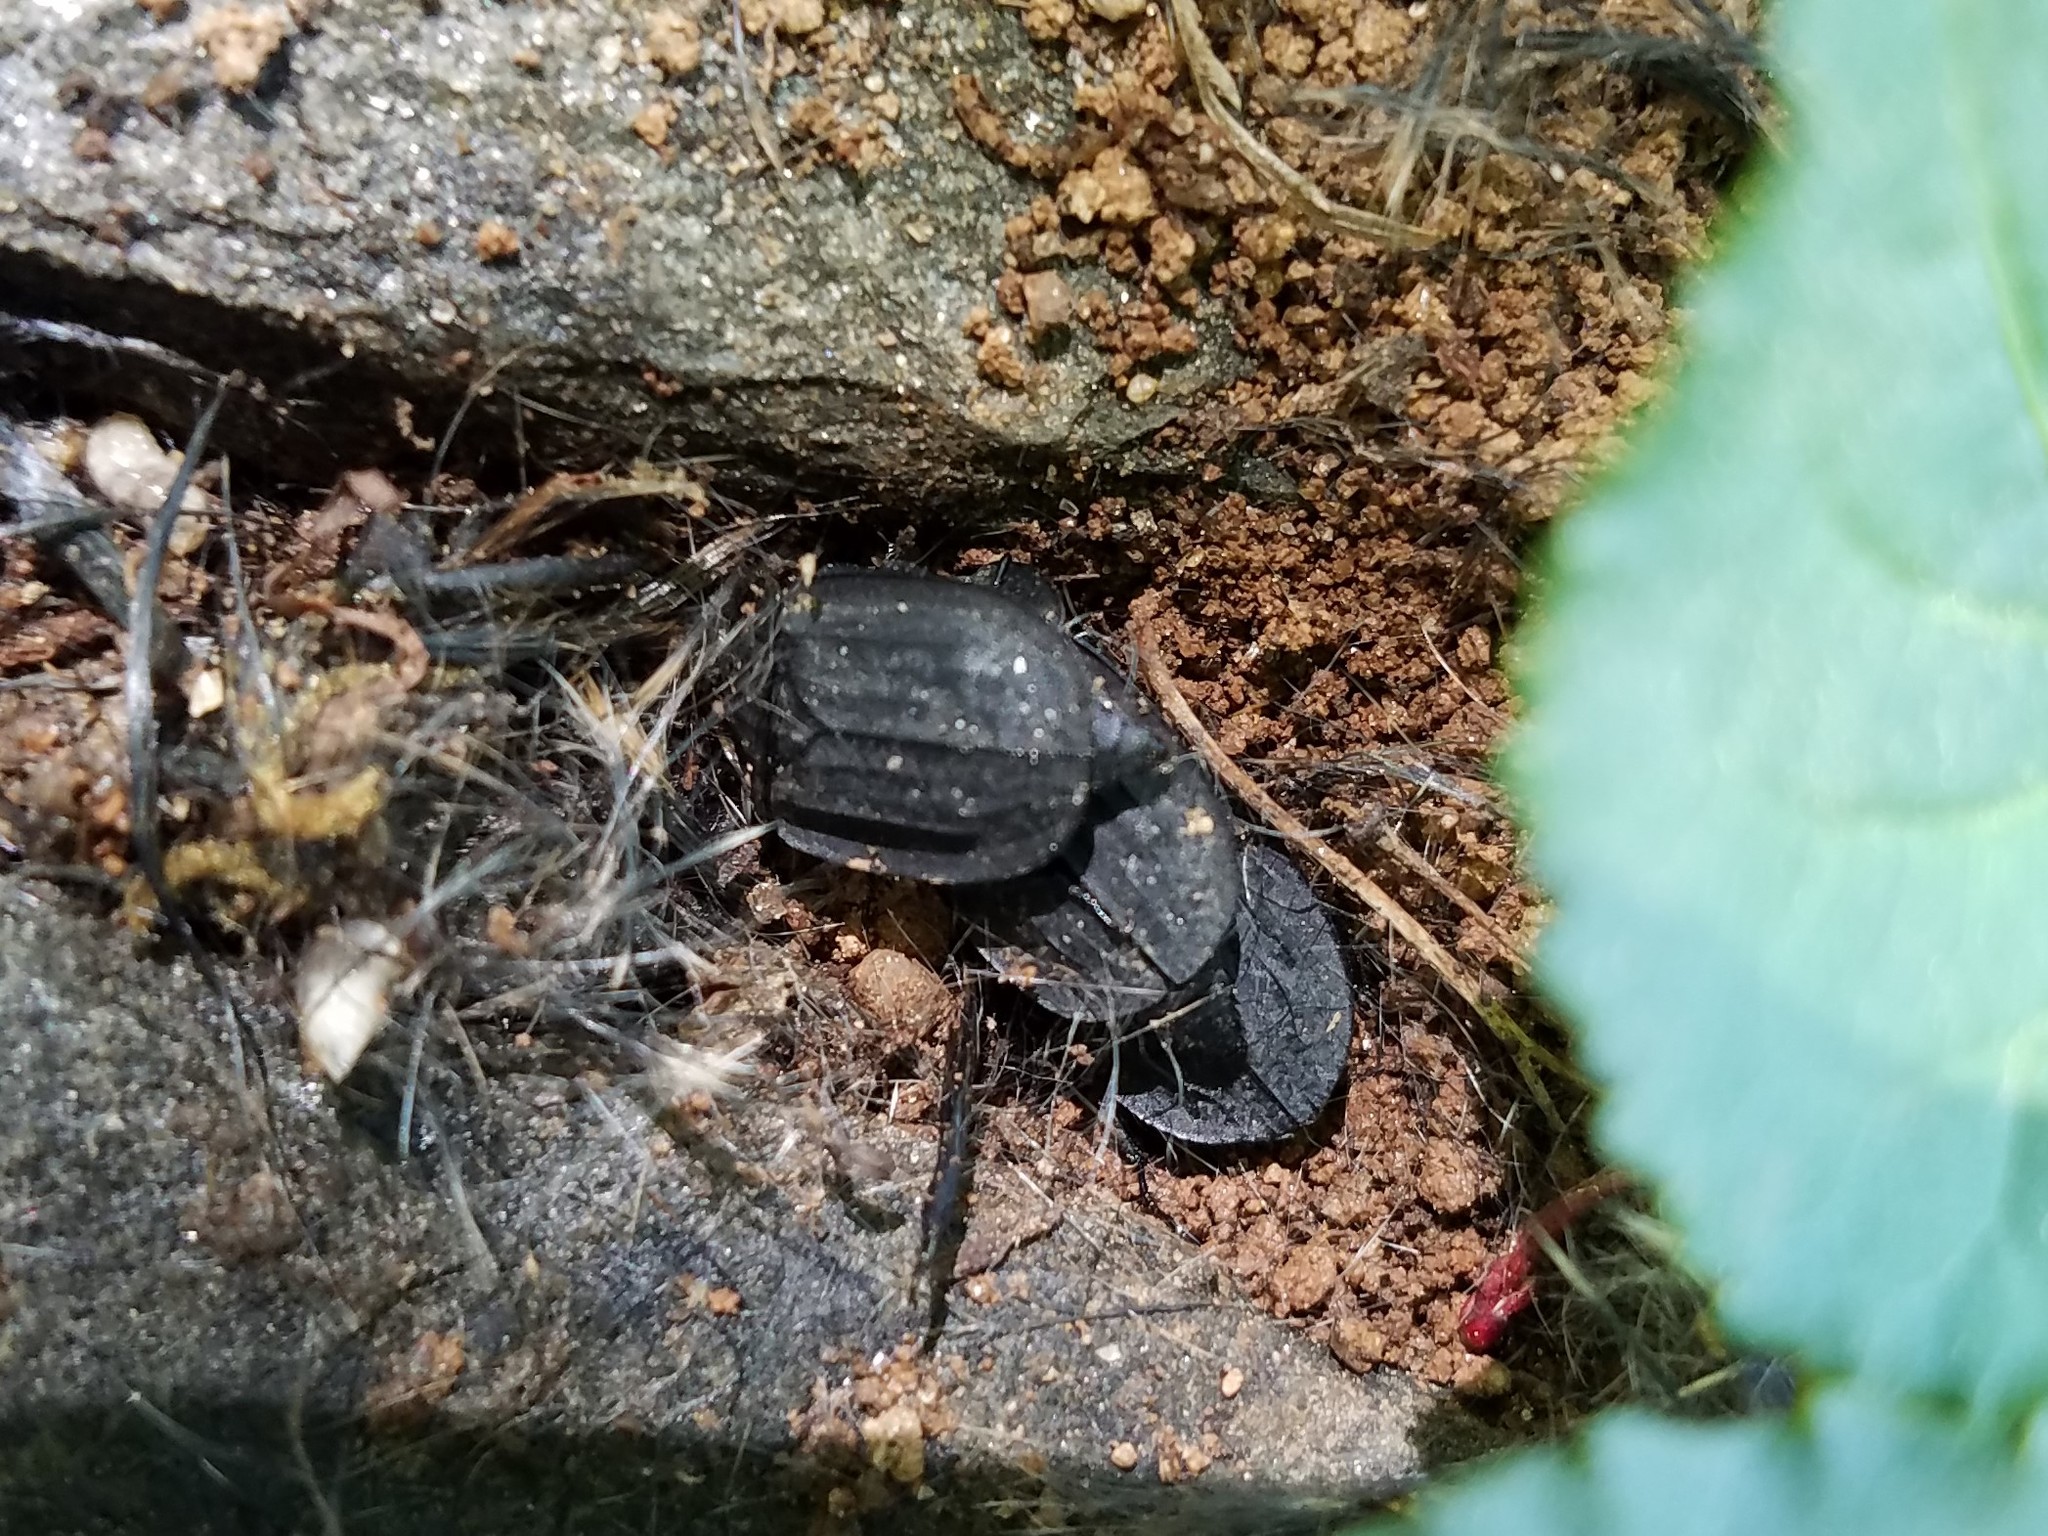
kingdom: Animalia
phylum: Arthropoda
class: Insecta
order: Coleoptera
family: Staphylinidae
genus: Oiceoptoma
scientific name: Oiceoptoma inaequale
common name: Ridged carrion beetle
